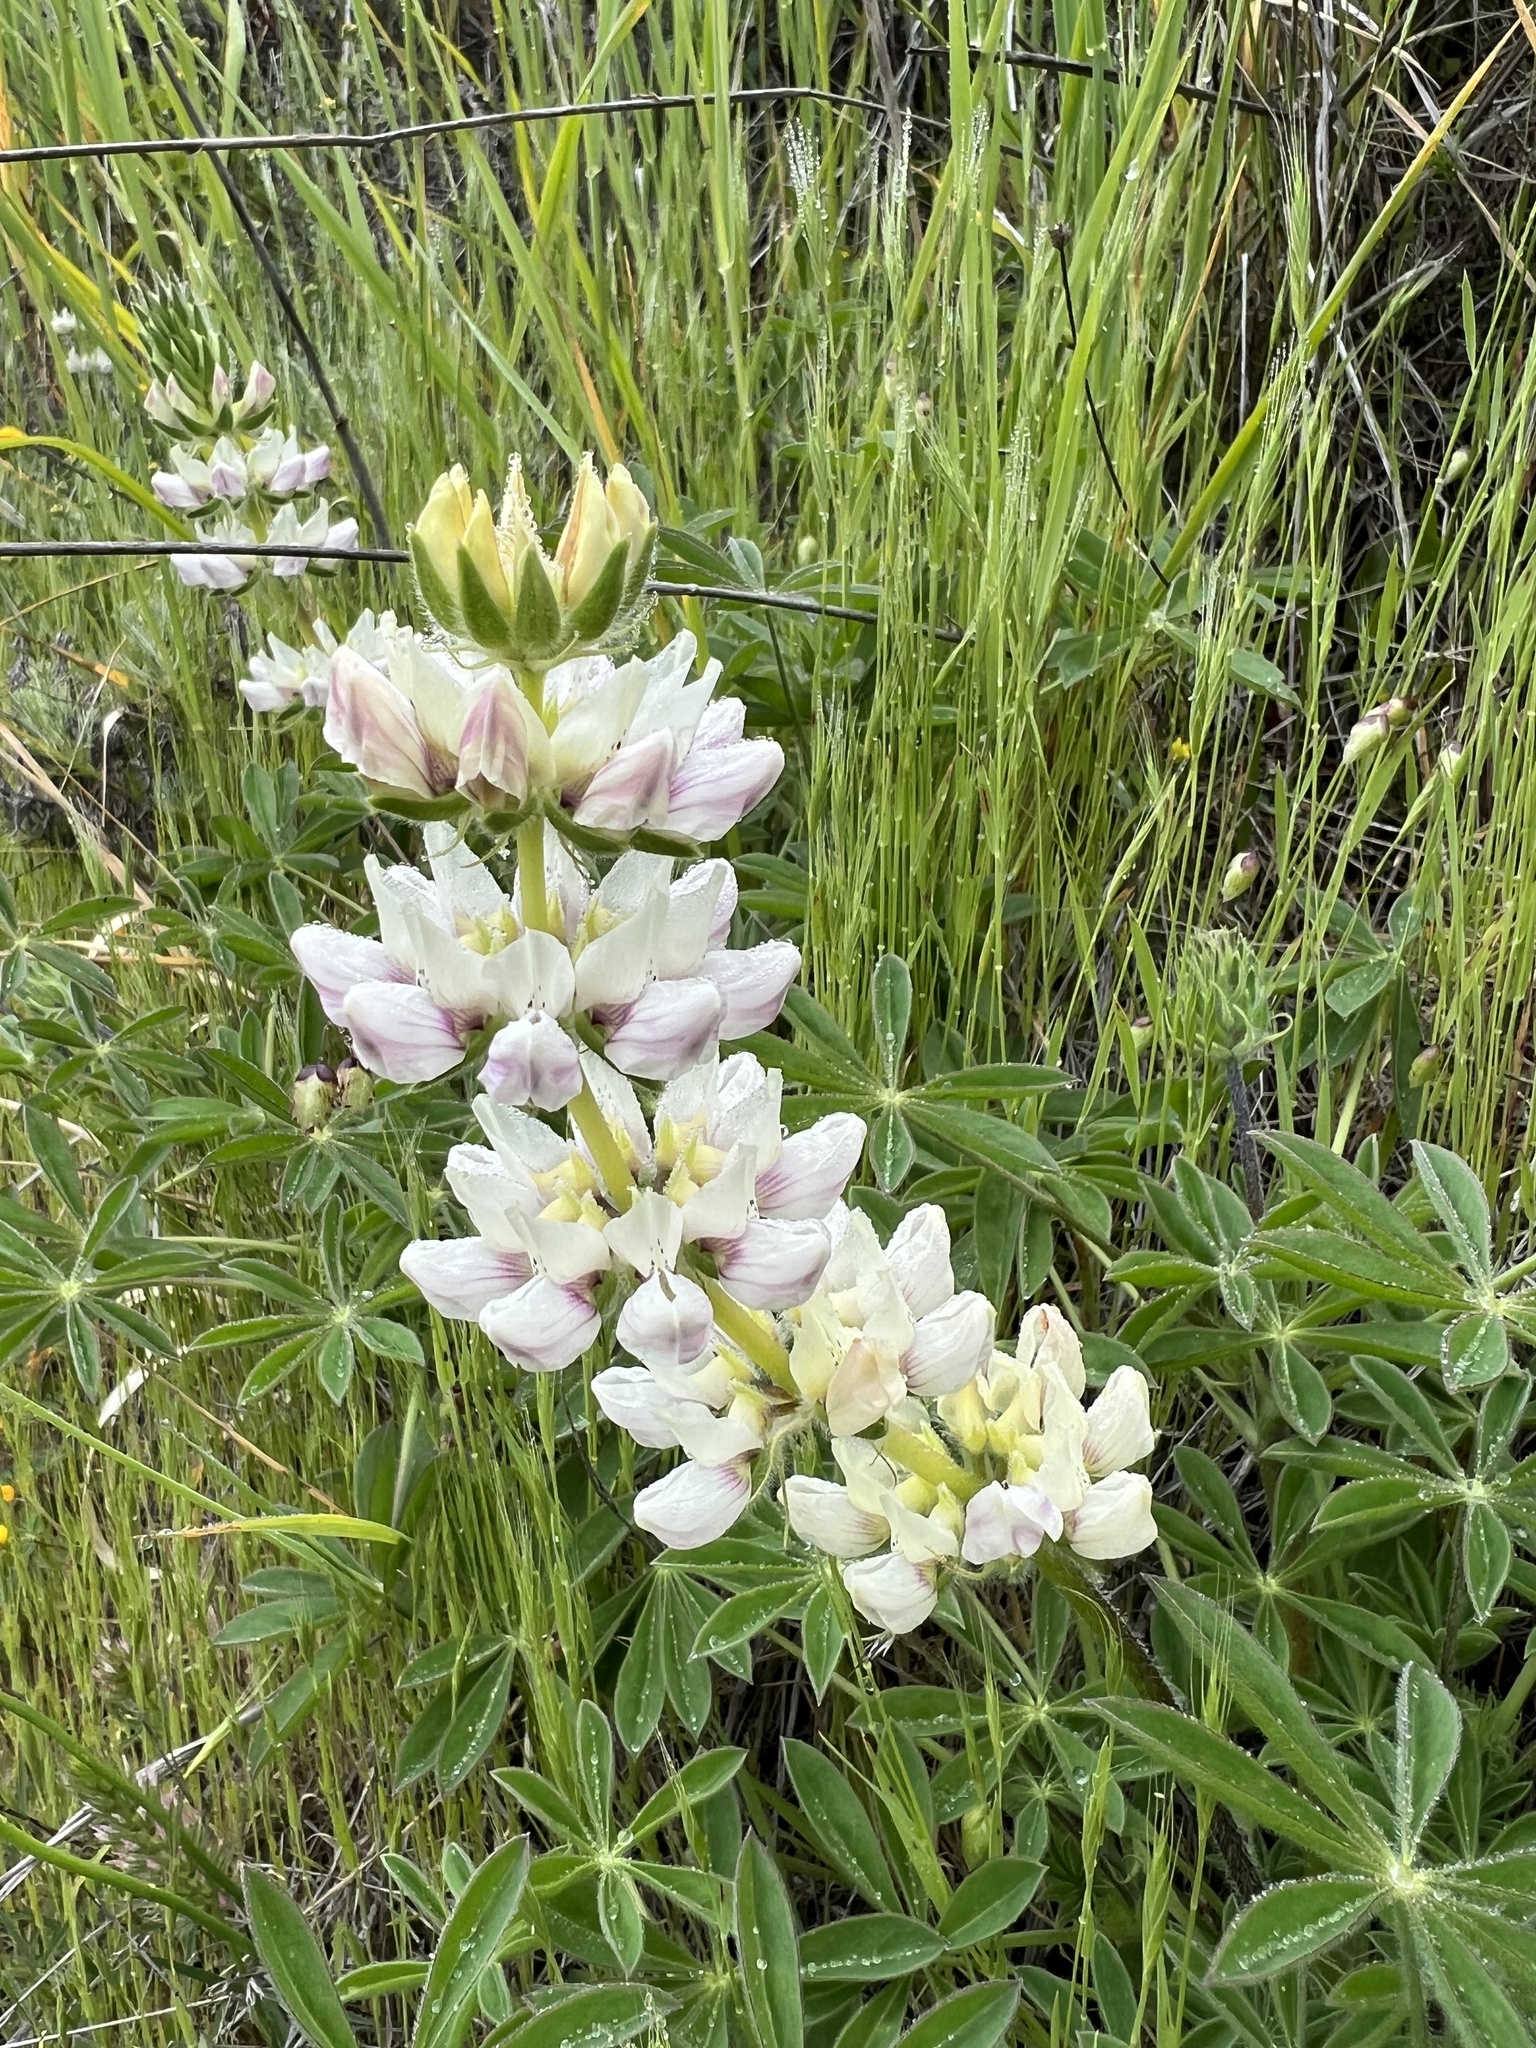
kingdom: Plantae
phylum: Tracheophyta
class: Magnoliopsida
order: Fabales
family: Fabaceae
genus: Lupinus
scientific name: Lupinus microcarpus
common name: Chick lupine
